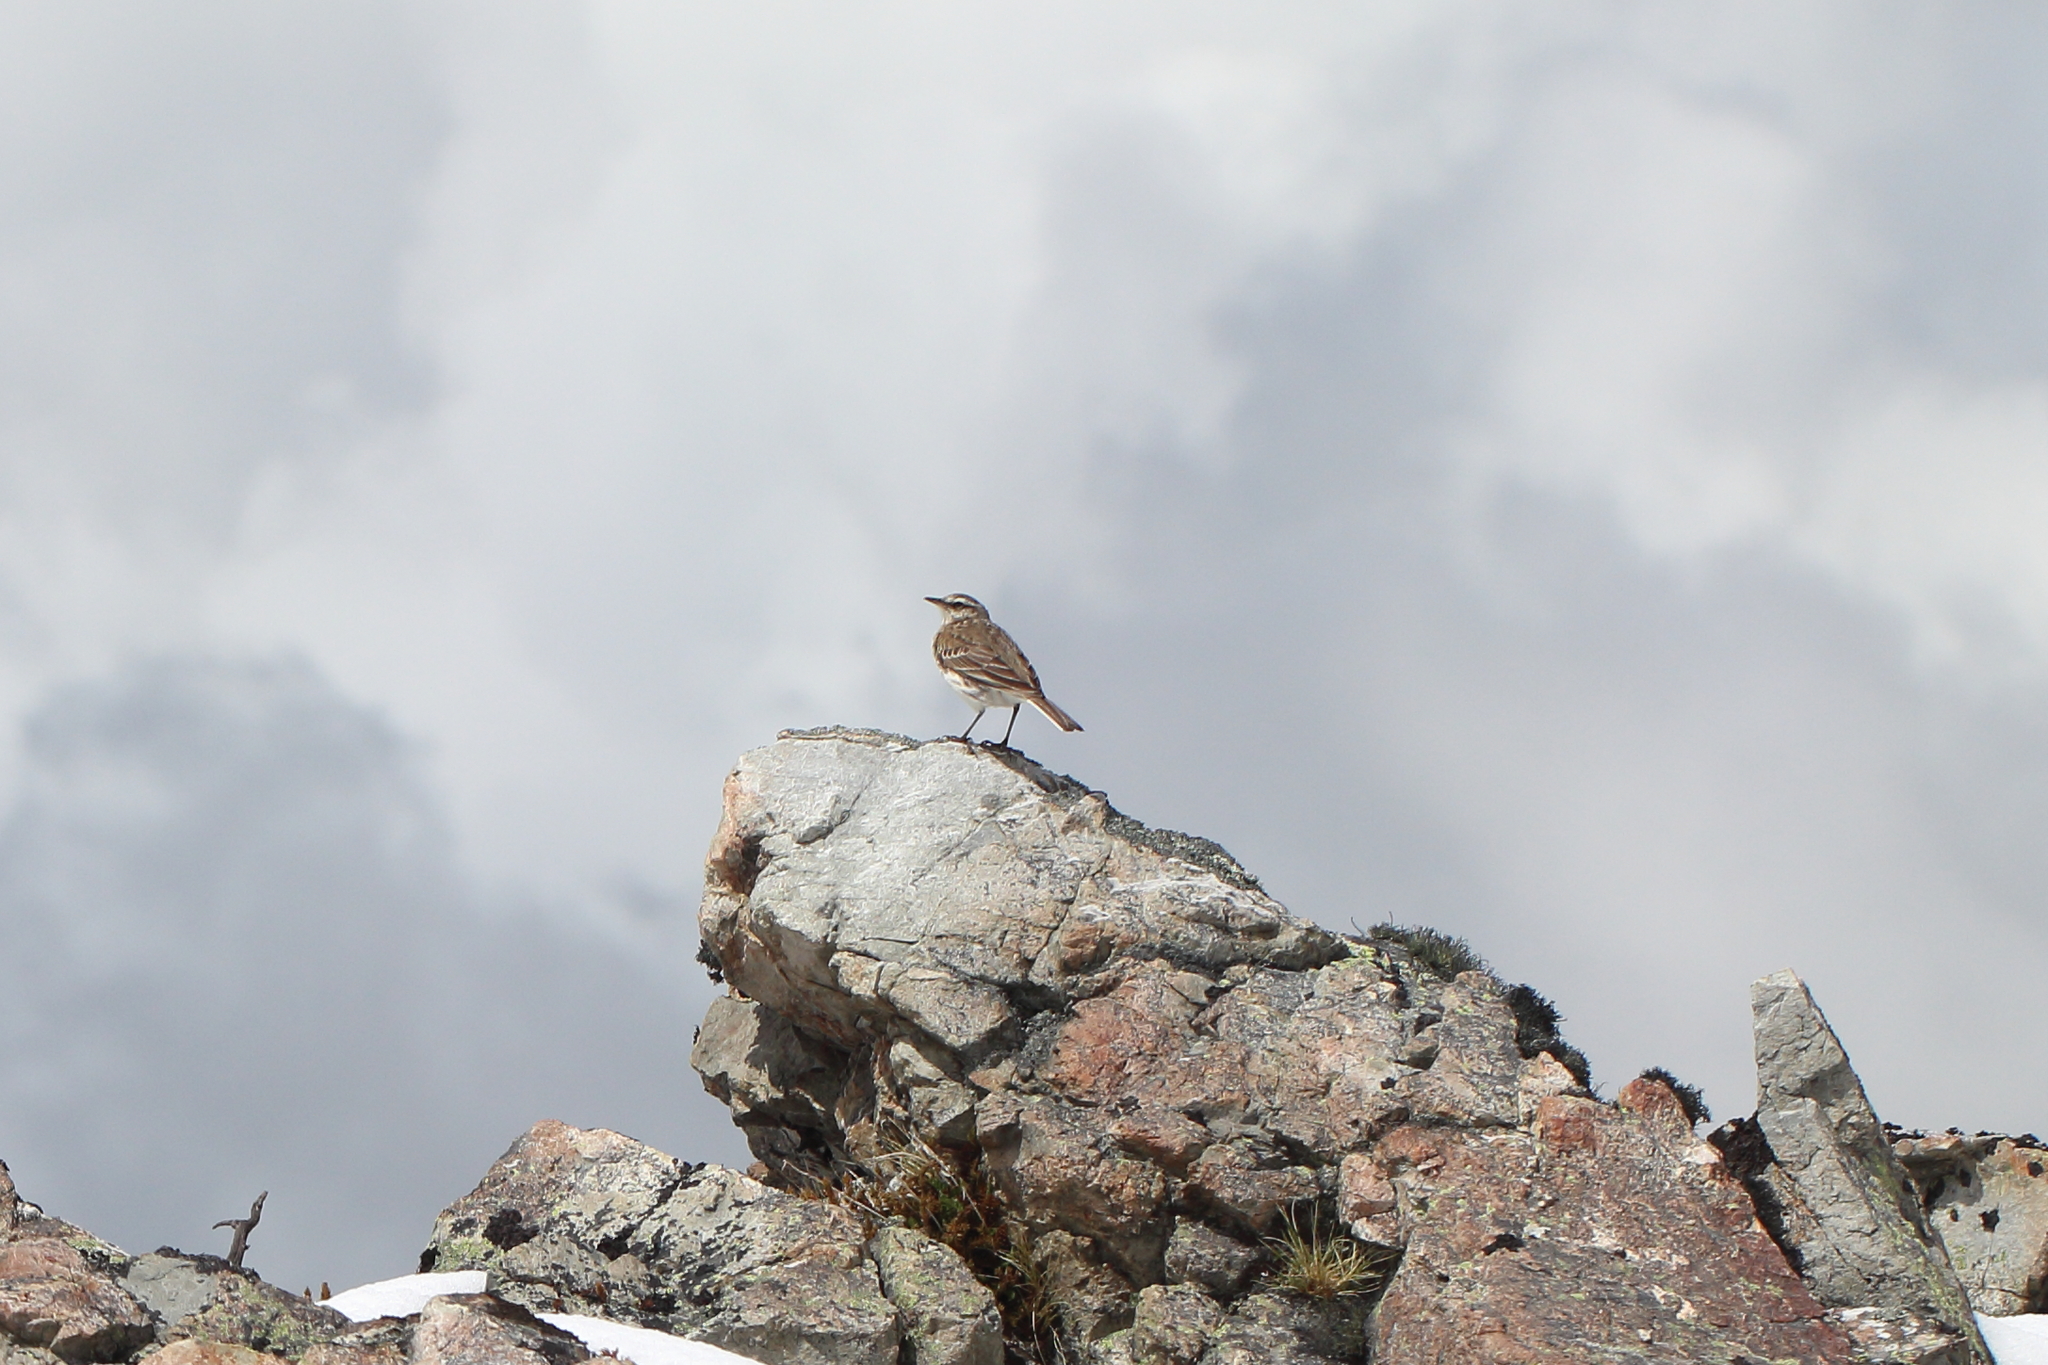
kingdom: Animalia
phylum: Chordata
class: Aves
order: Passeriformes
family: Motacillidae
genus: Anthus
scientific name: Anthus novaeseelandiae
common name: New zealand pipit
